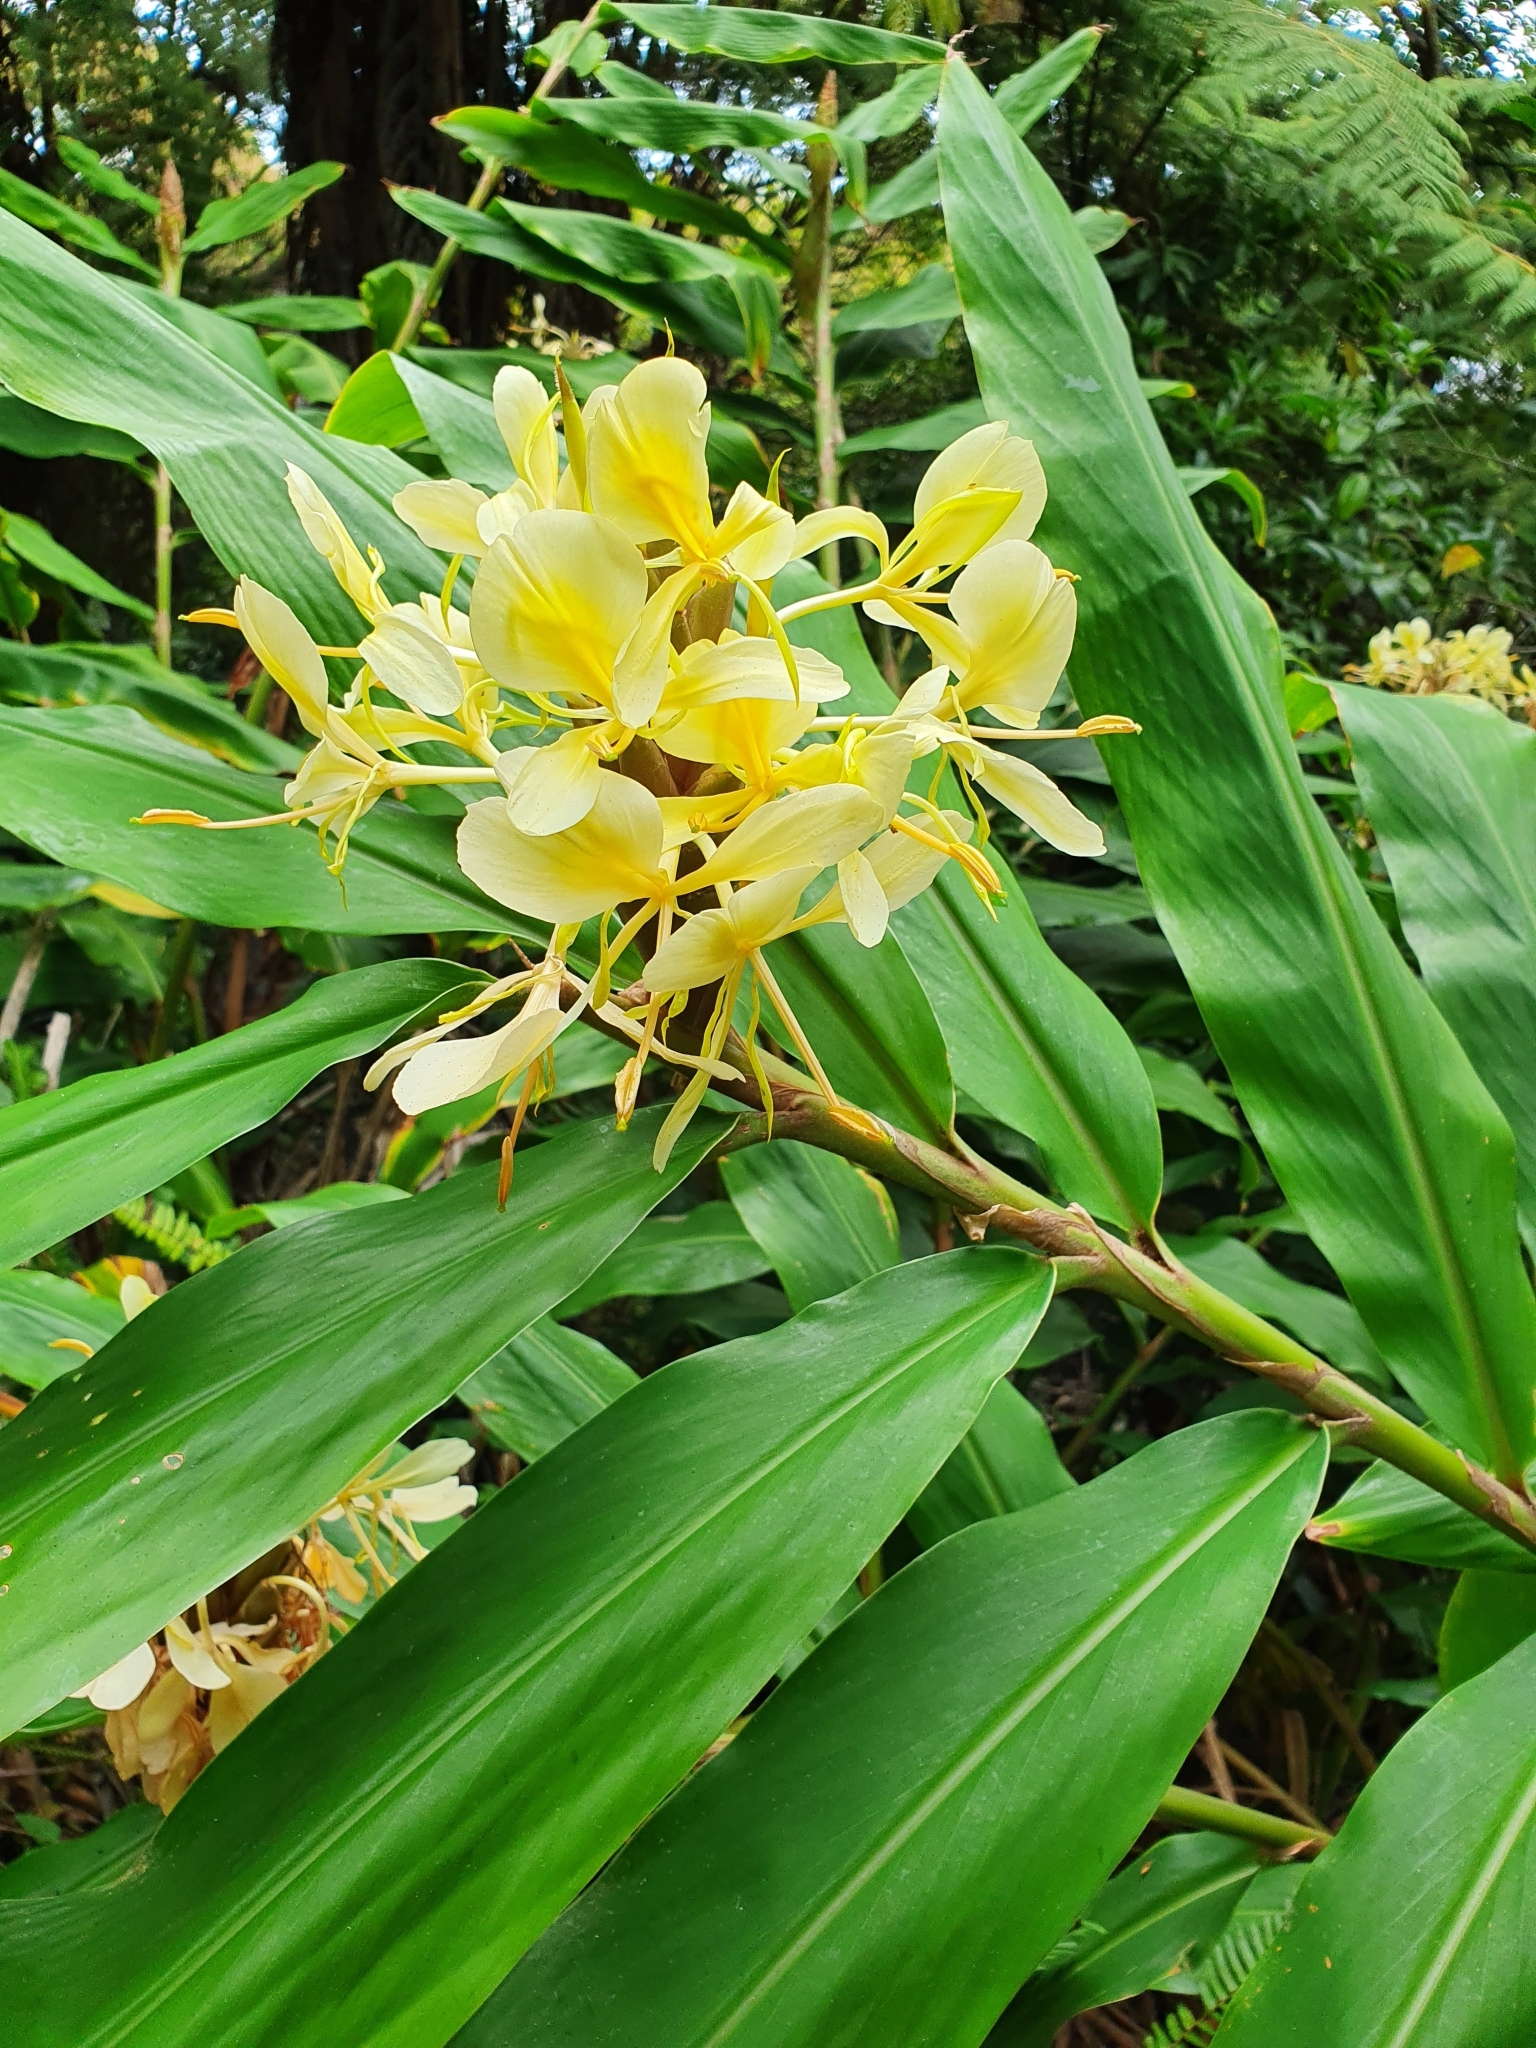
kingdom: Plantae
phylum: Tracheophyta
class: Liliopsida
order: Zingiberales
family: Zingiberaceae
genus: Hedychium
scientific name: Hedychium flavescens
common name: Yellow ginger
